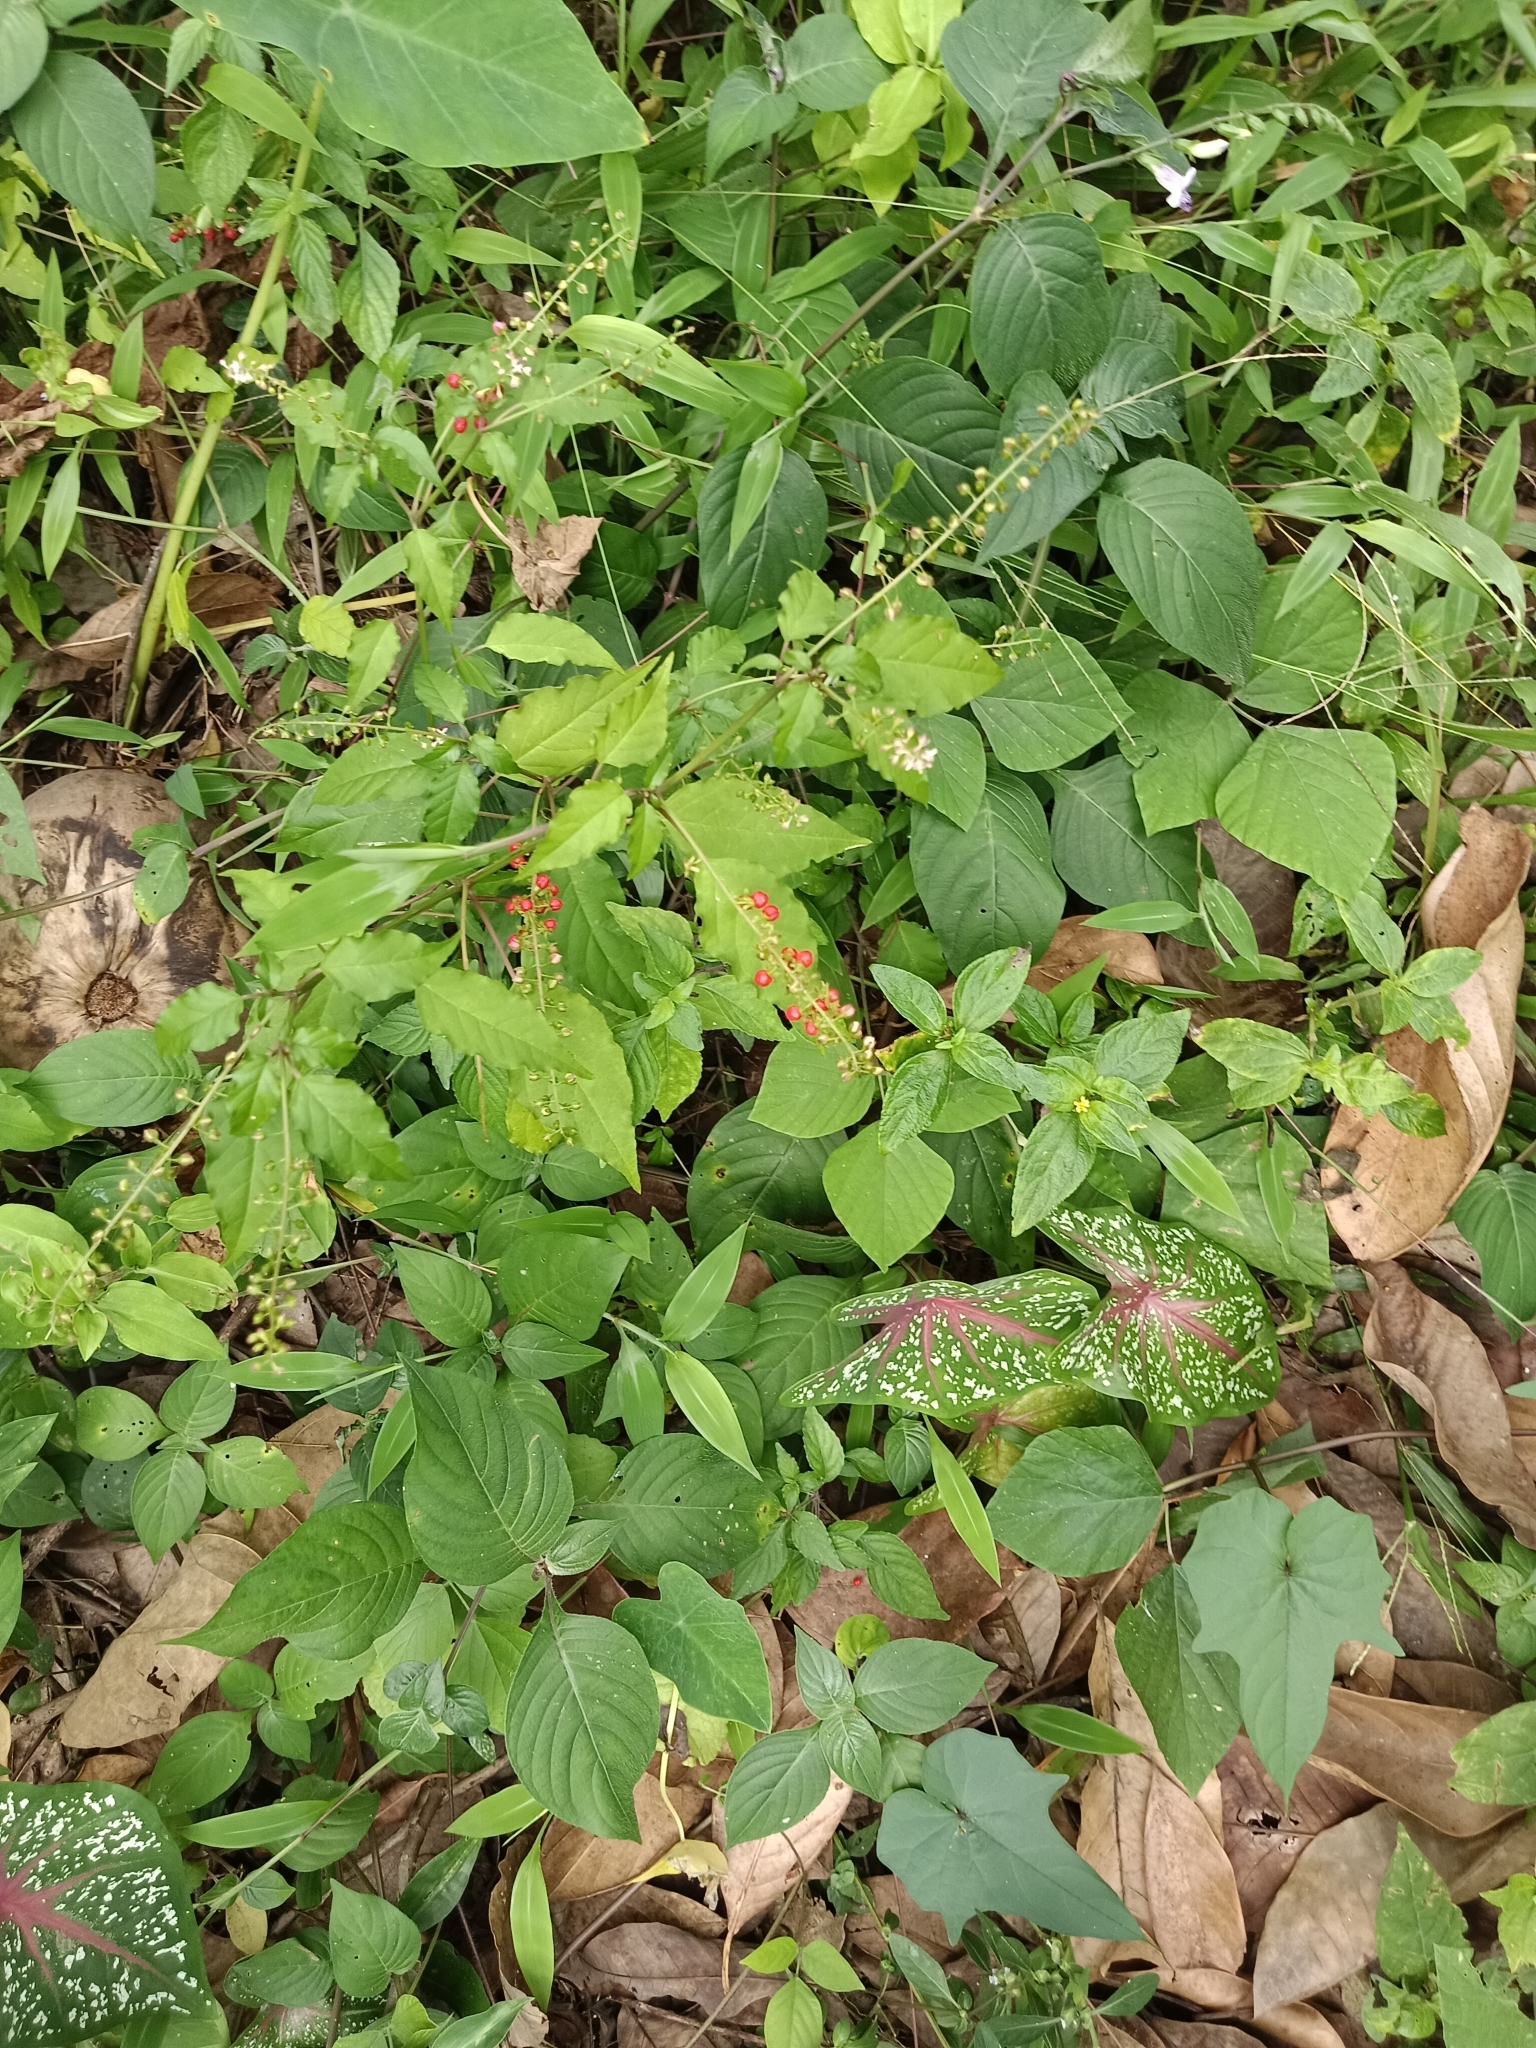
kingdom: Plantae
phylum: Tracheophyta
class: Magnoliopsida
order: Caryophyllales
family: Phytolaccaceae
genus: Rivina
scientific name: Rivina humilis
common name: Rougeplant
